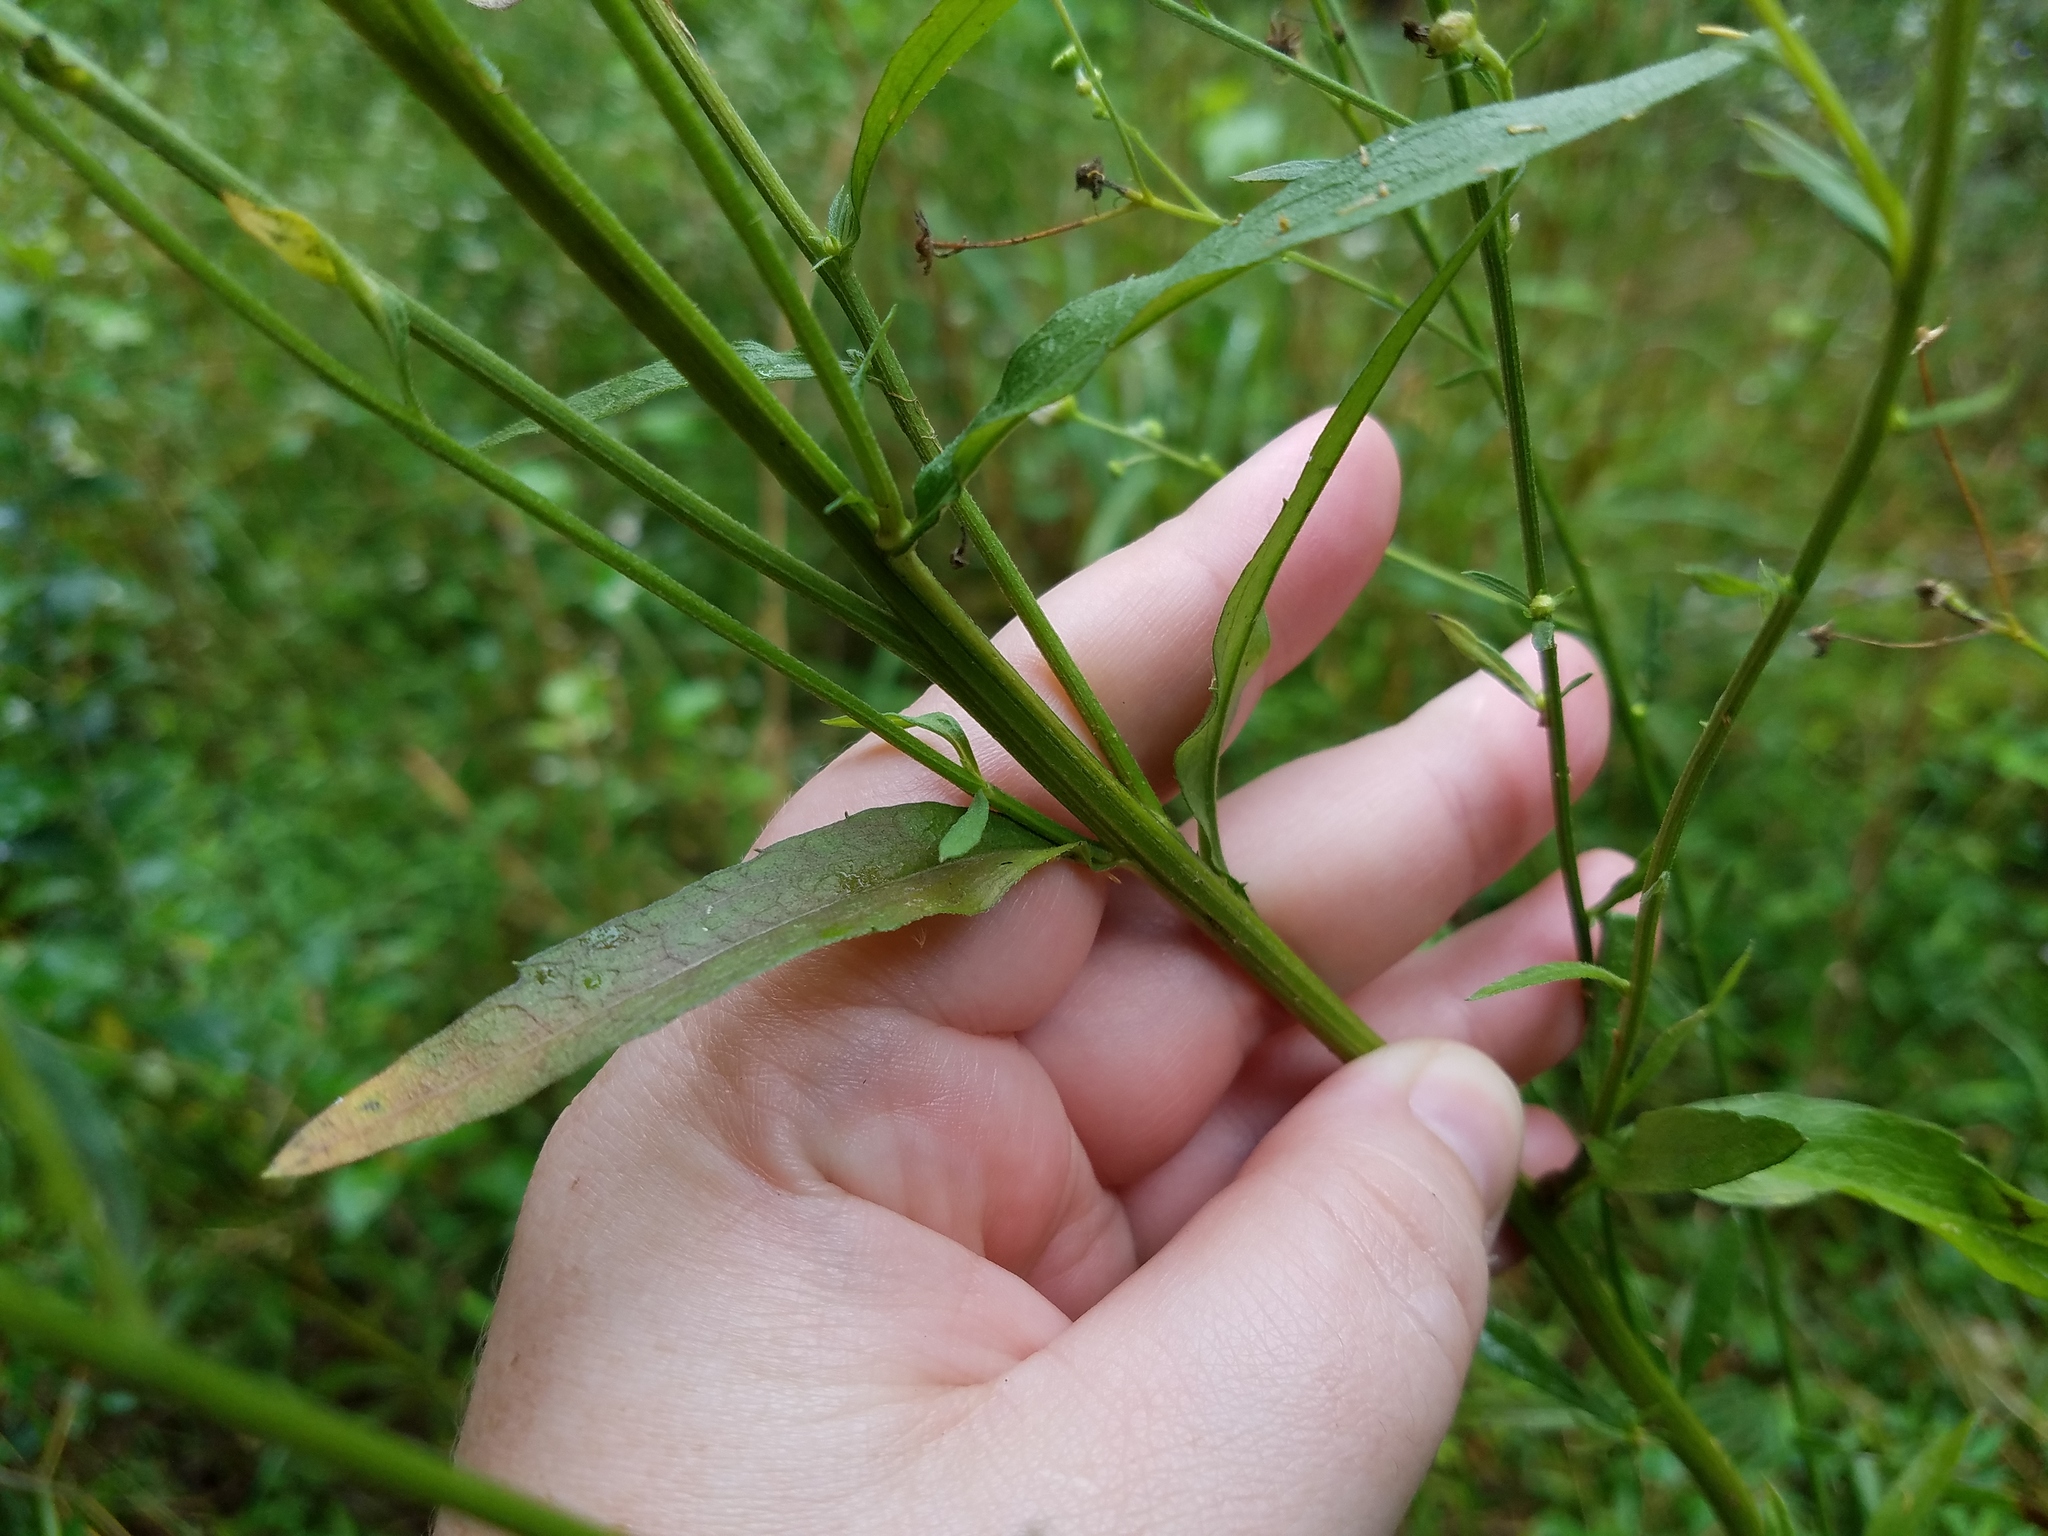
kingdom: Plantae
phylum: Tracheophyta
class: Magnoliopsida
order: Asterales
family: Asteraceae
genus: Erigeron
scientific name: Erigeron annuus
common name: Tall fleabane
